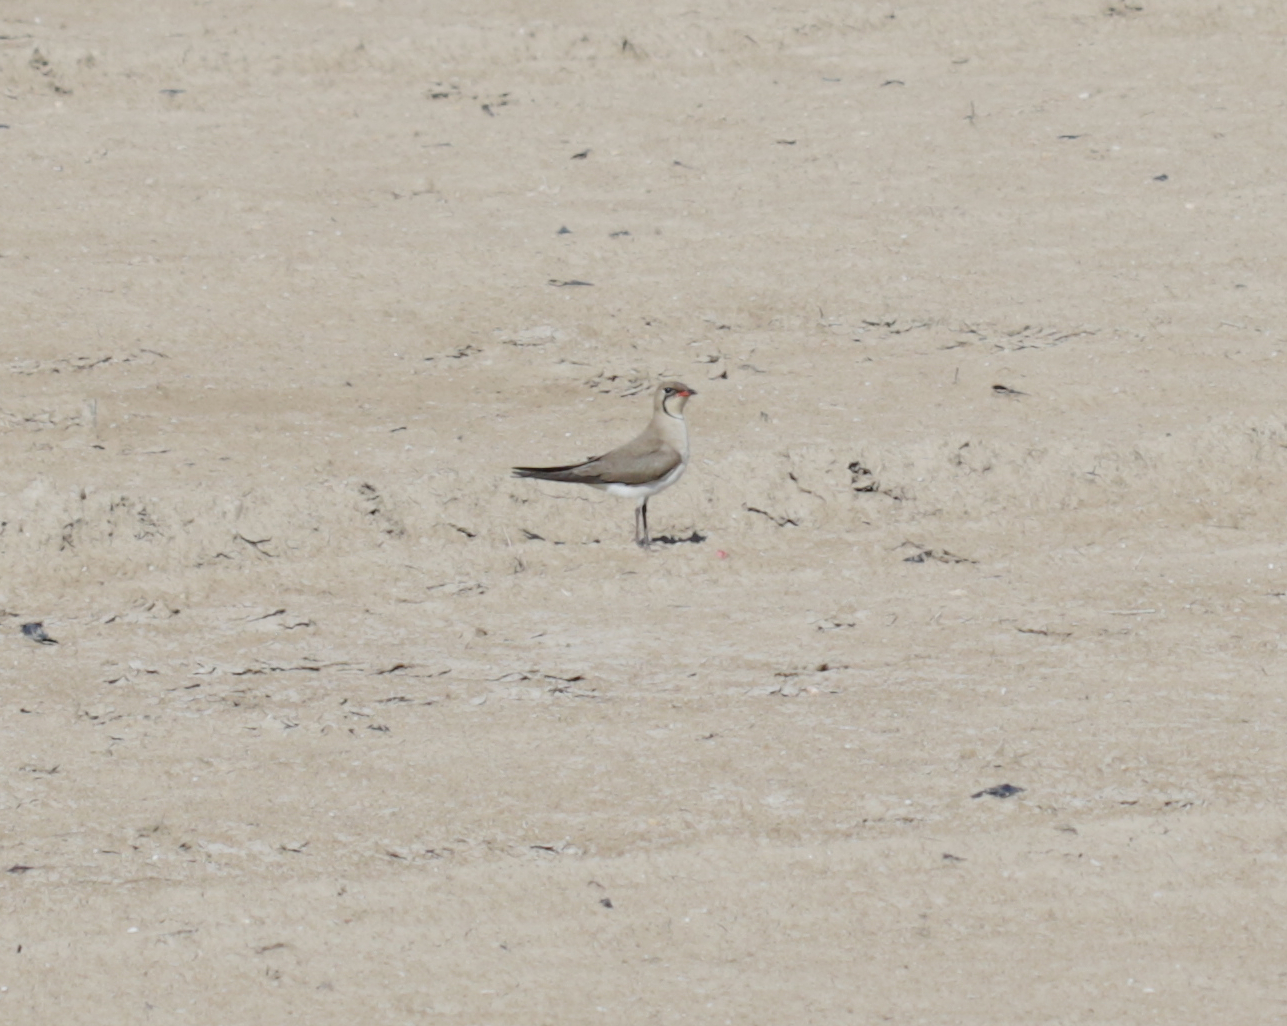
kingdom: Animalia
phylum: Chordata
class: Aves
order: Charadriiformes
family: Glareolidae
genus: Glareola
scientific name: Glareola pratincola
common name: Collared pratincole
